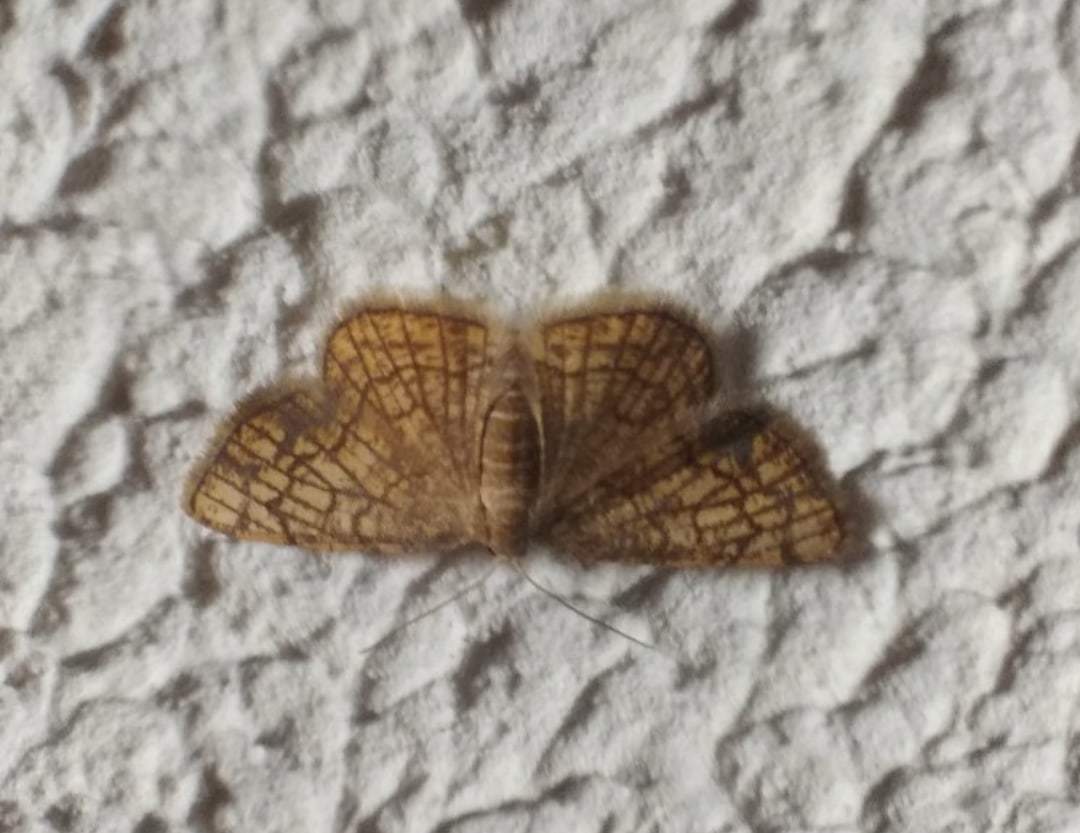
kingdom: Animalia
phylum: Arthropoda
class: Insecta
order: Lepidoptera
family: Geometridae
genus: Stegania
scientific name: Stegania dilectaria
